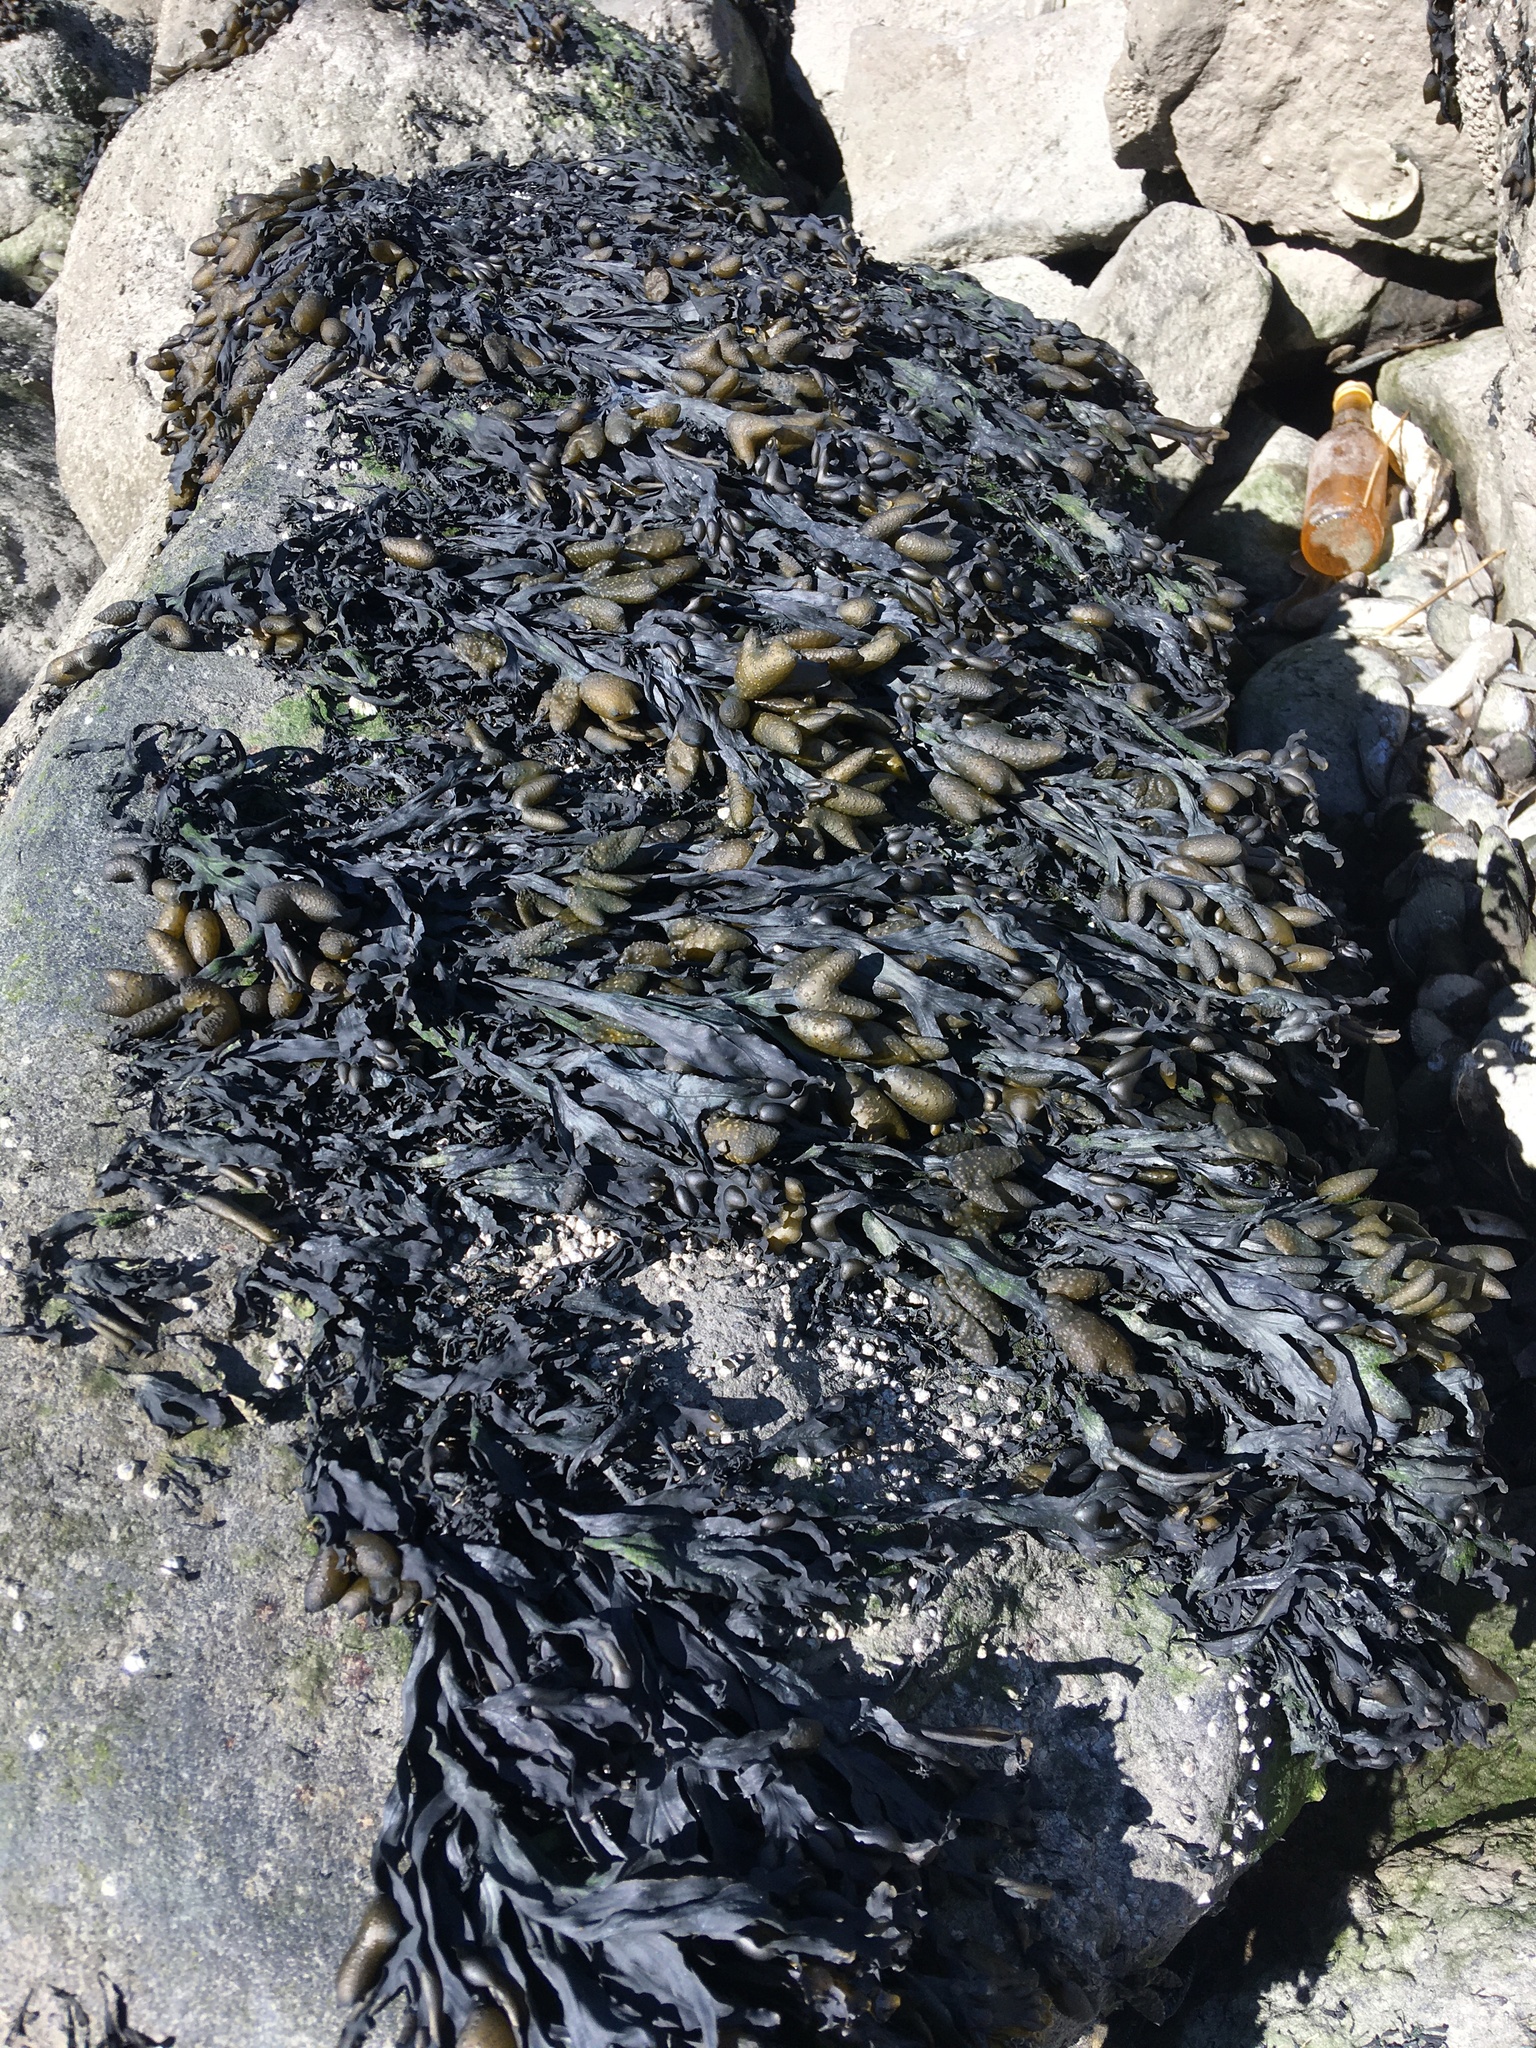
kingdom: Chromista
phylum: Ochrophyta
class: Phaeophyceae
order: Fucales
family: Fucaceae
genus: Fucus
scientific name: Fucus vesiculosus
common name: Bladder wrack
